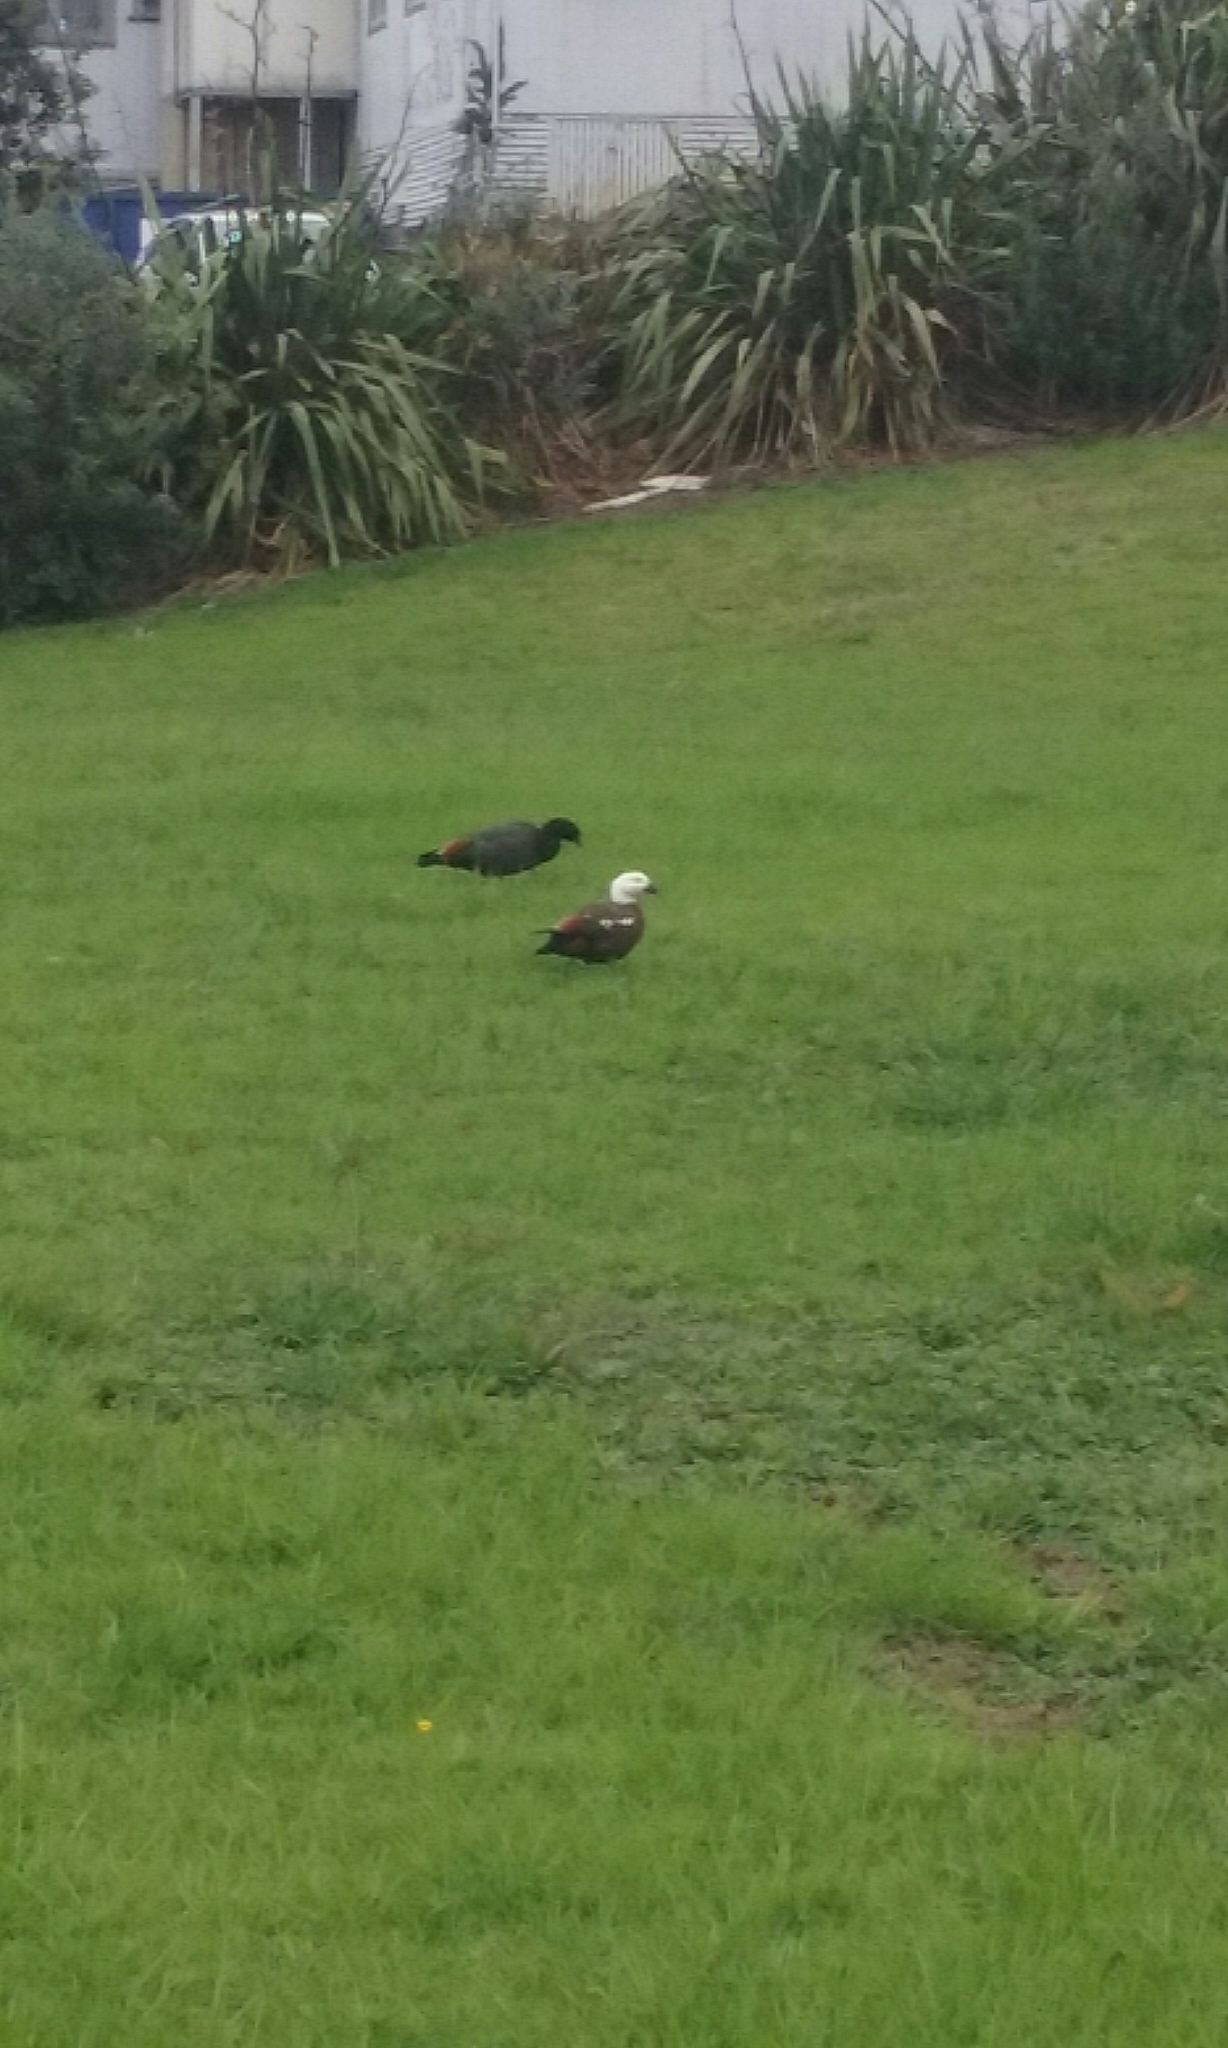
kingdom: Animalia
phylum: Chordata
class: Aves
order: Anseriformes
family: Anatidae
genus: Tadorna
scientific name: Tadorna variegata
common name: Paradise shelduck
